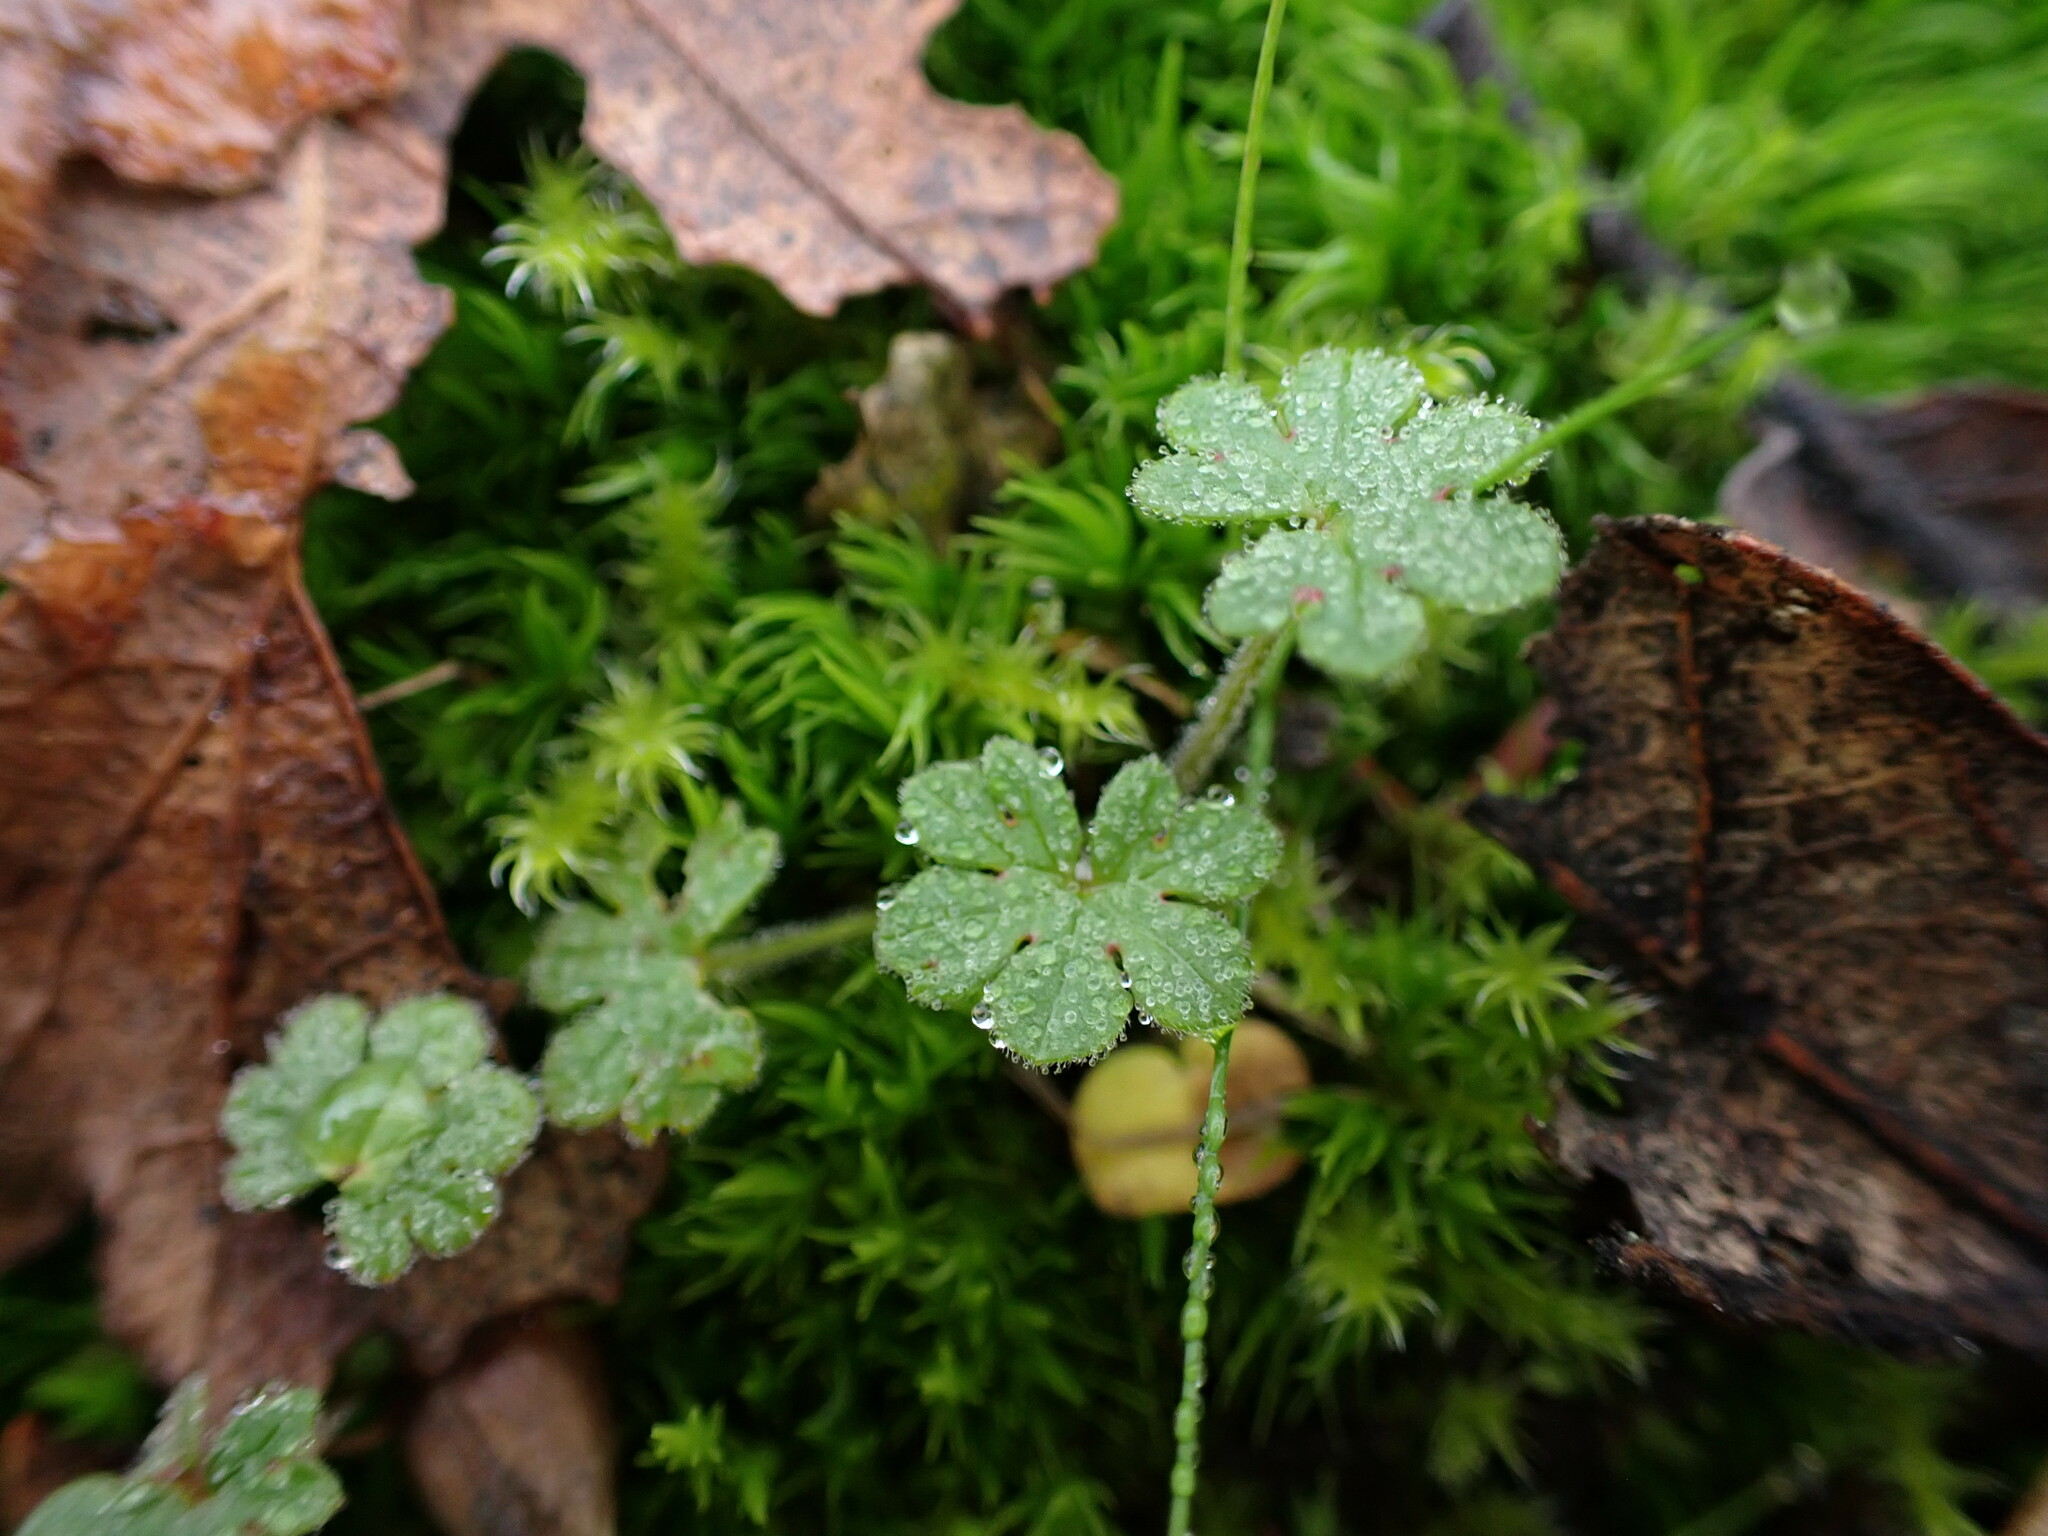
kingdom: Plantae
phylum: Tracheophyta
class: Magnoliopsida
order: Geraniales
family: Geraniaceae
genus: Geranium
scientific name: Geranium molle
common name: Dove's-foot crane's-bill
